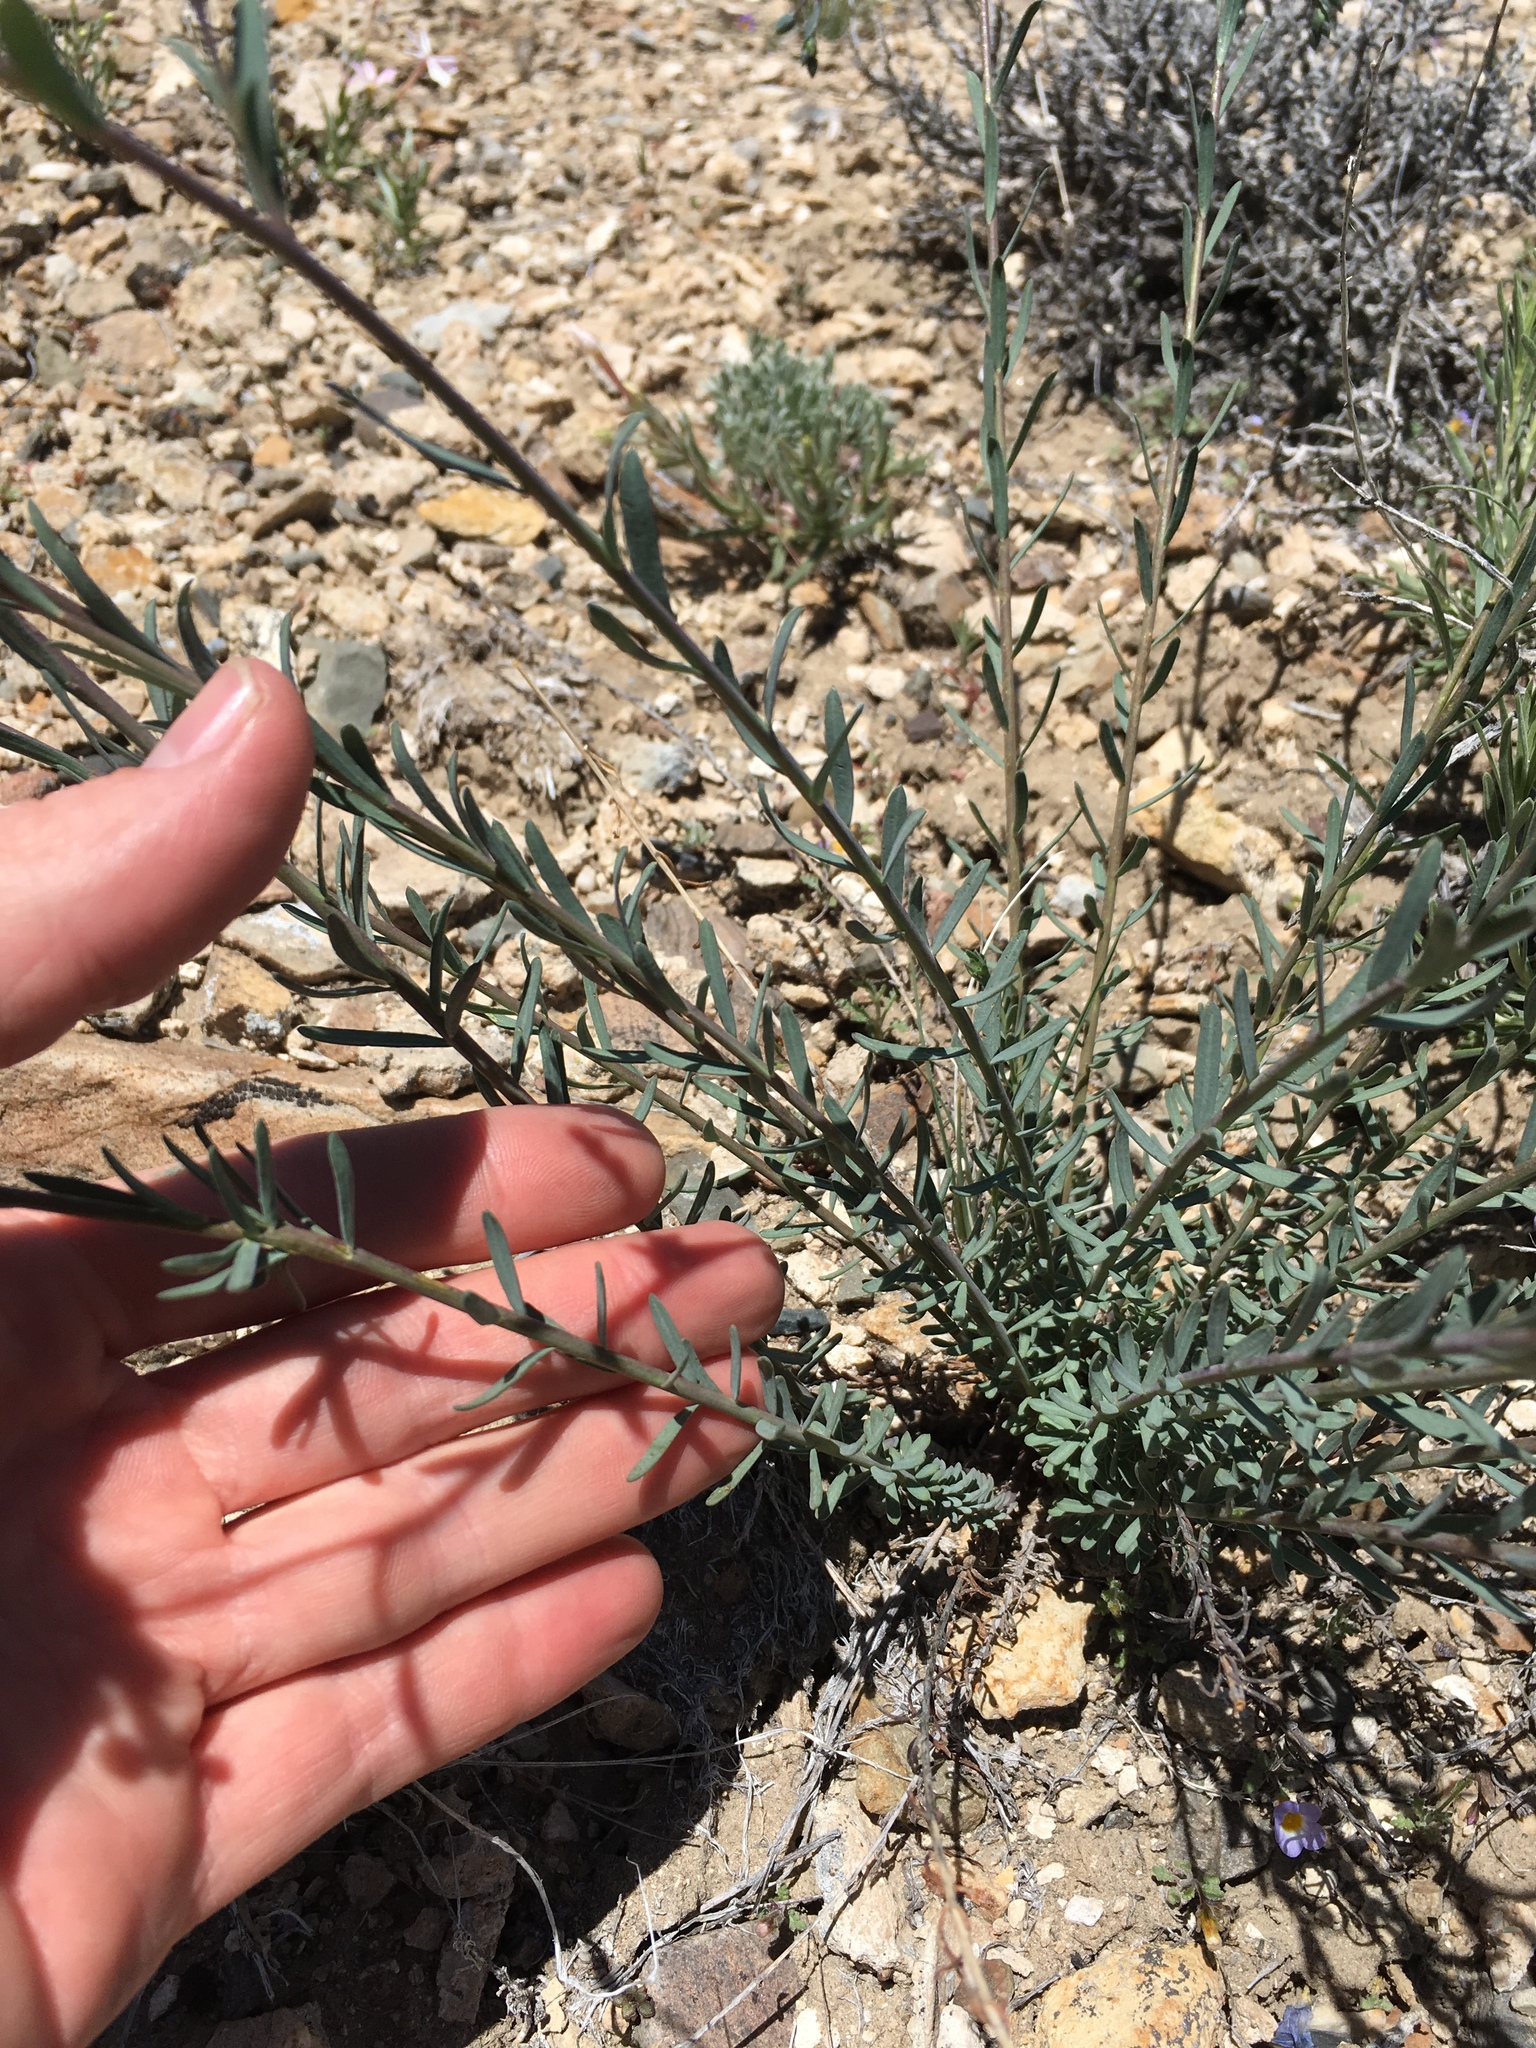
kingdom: Plantae
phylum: Tracheophyta
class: Magnoliopsida
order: Malpighiales
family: Linaceae
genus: Linum
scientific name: Linum lewisii
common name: Prairie flax
